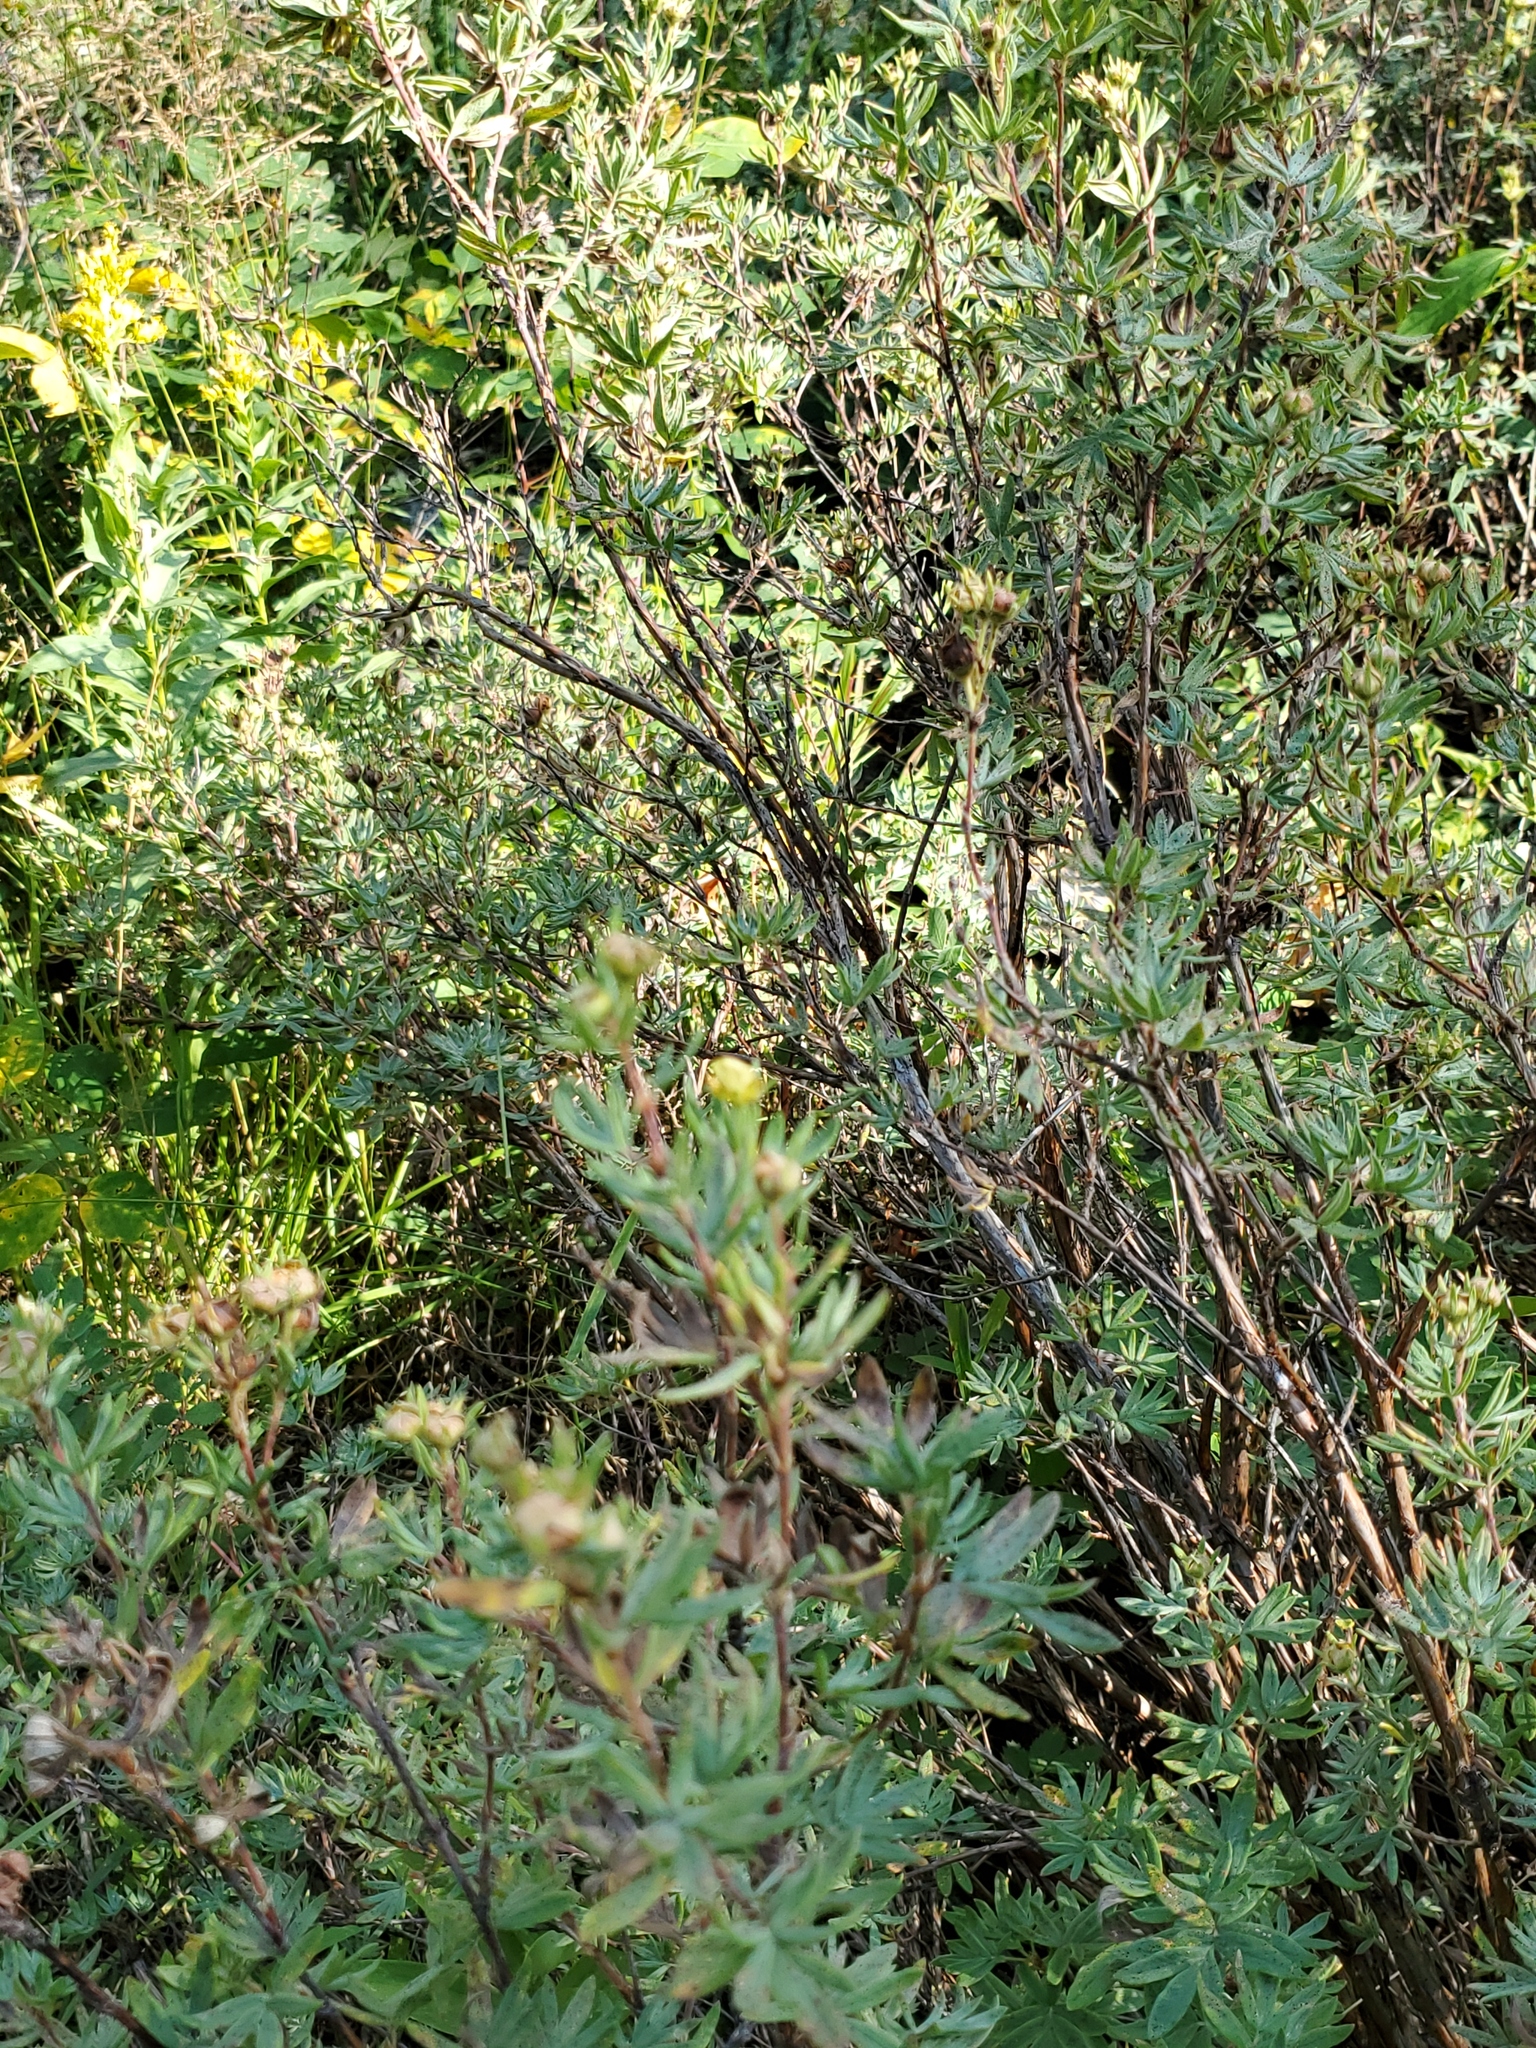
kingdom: Plantae
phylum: Tracheophyta
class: Magnoliopsida
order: Rosales
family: Rosaceae
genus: Dasiphora
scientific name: Dasiphora fruticosa
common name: Shrubby cinquefoil
